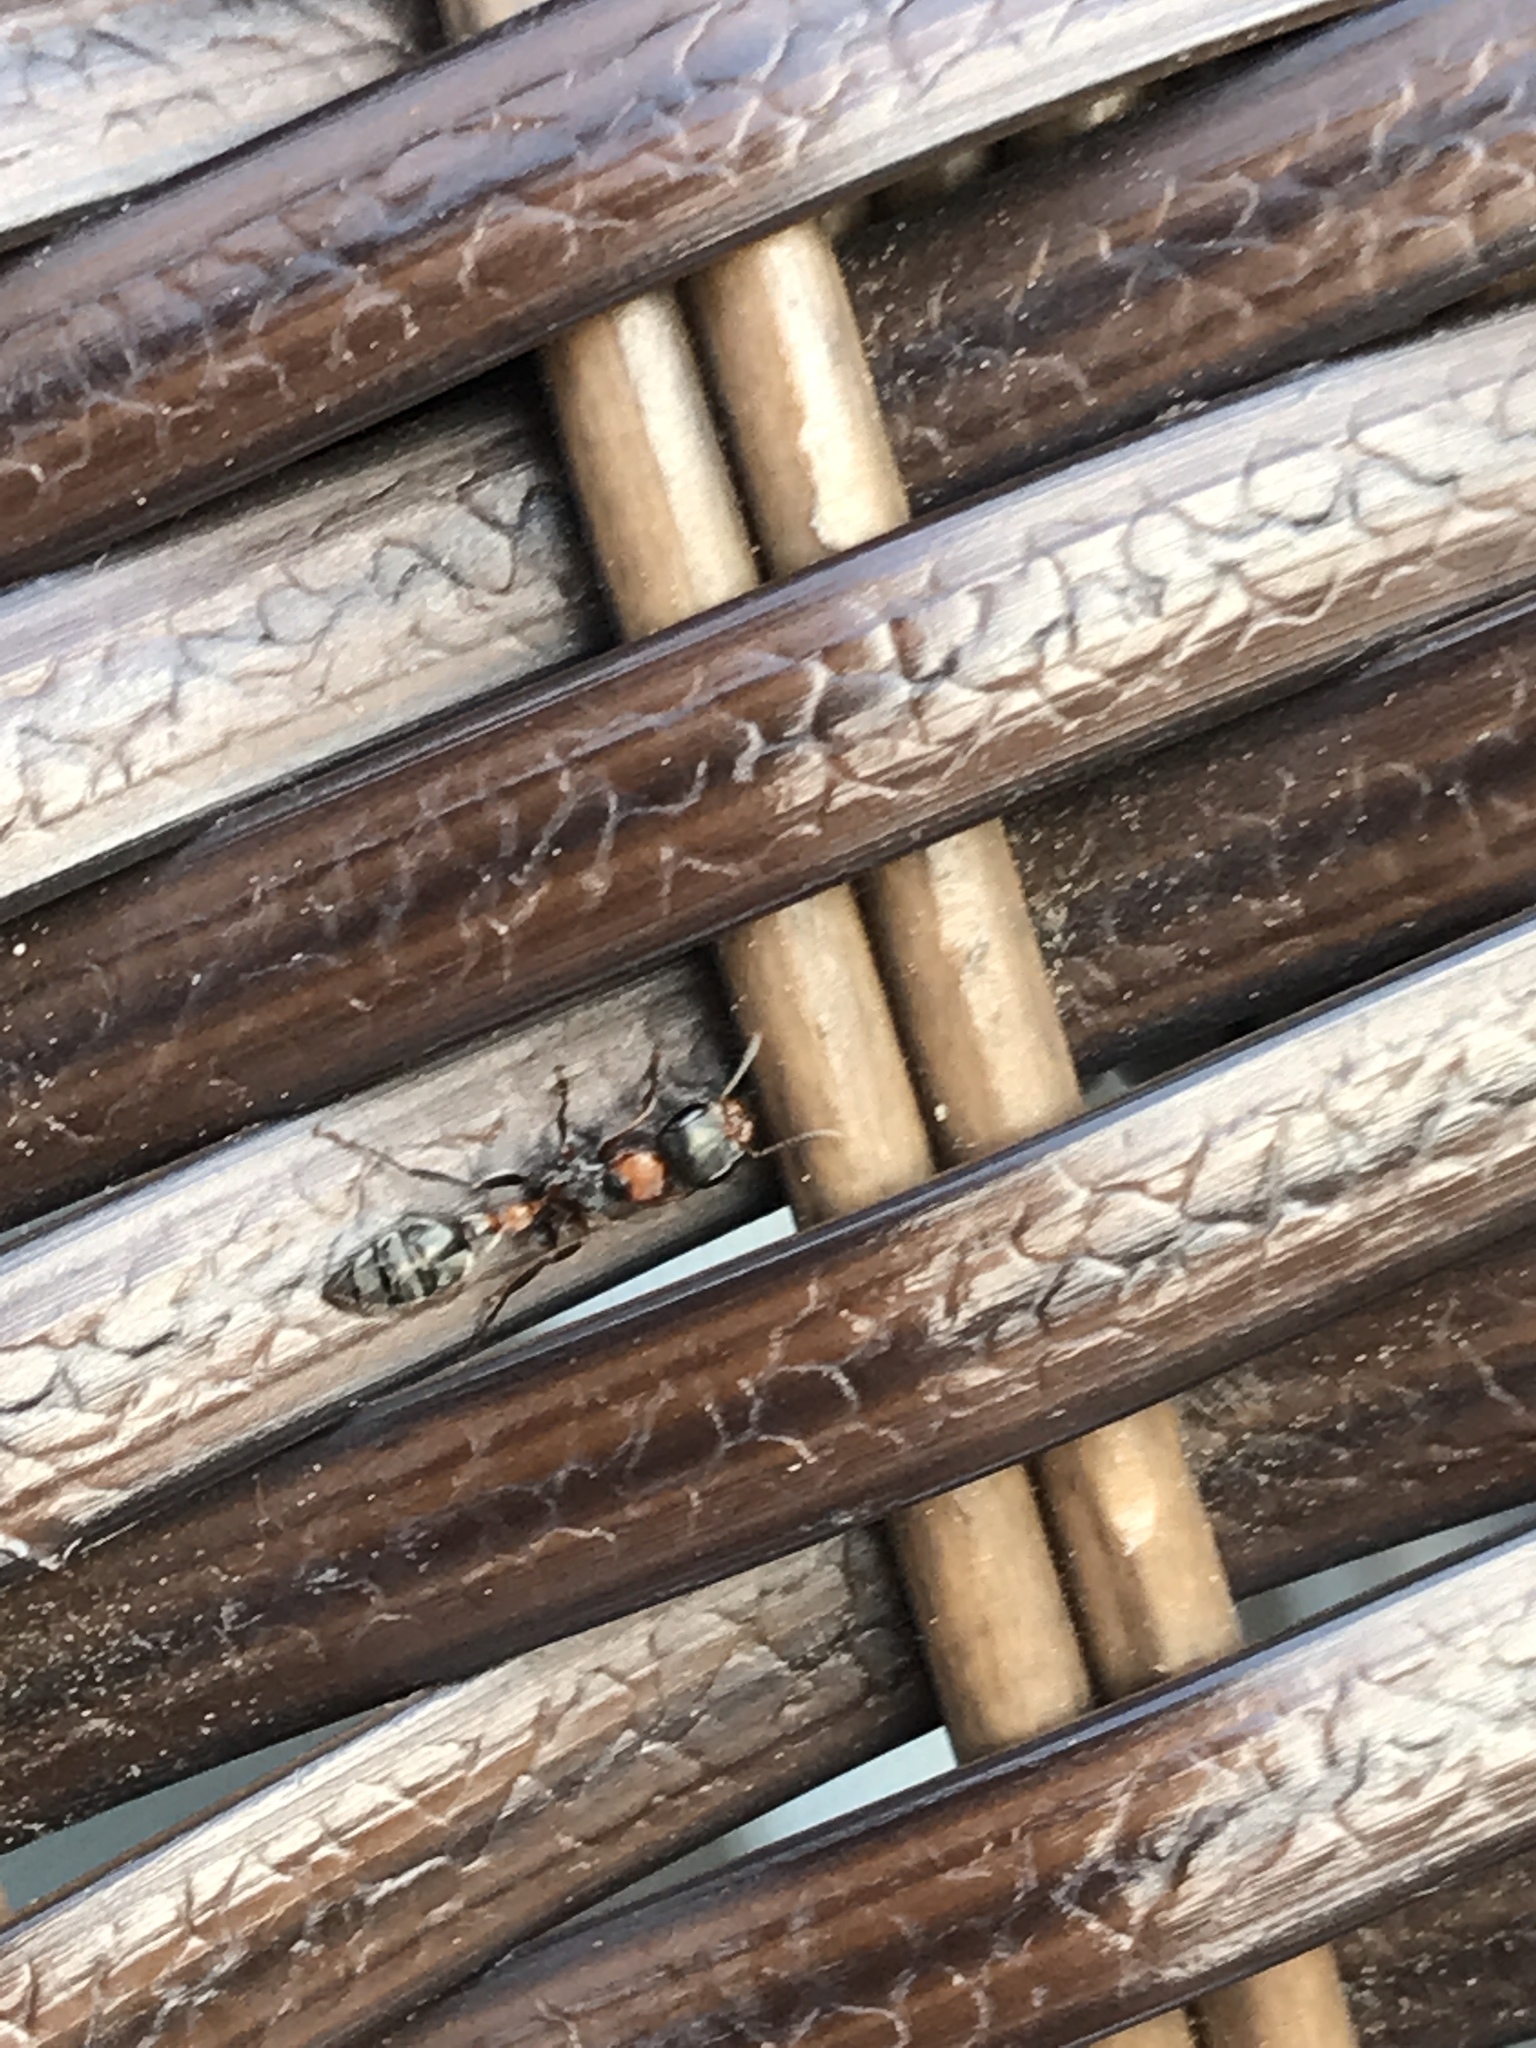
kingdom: Animalia
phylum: Arthropoda
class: Insecta
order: Hymenoptera
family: Formicidae
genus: Pseudomyrmex
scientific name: Pseudomyrmex gracilis
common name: Graceful twig ant
